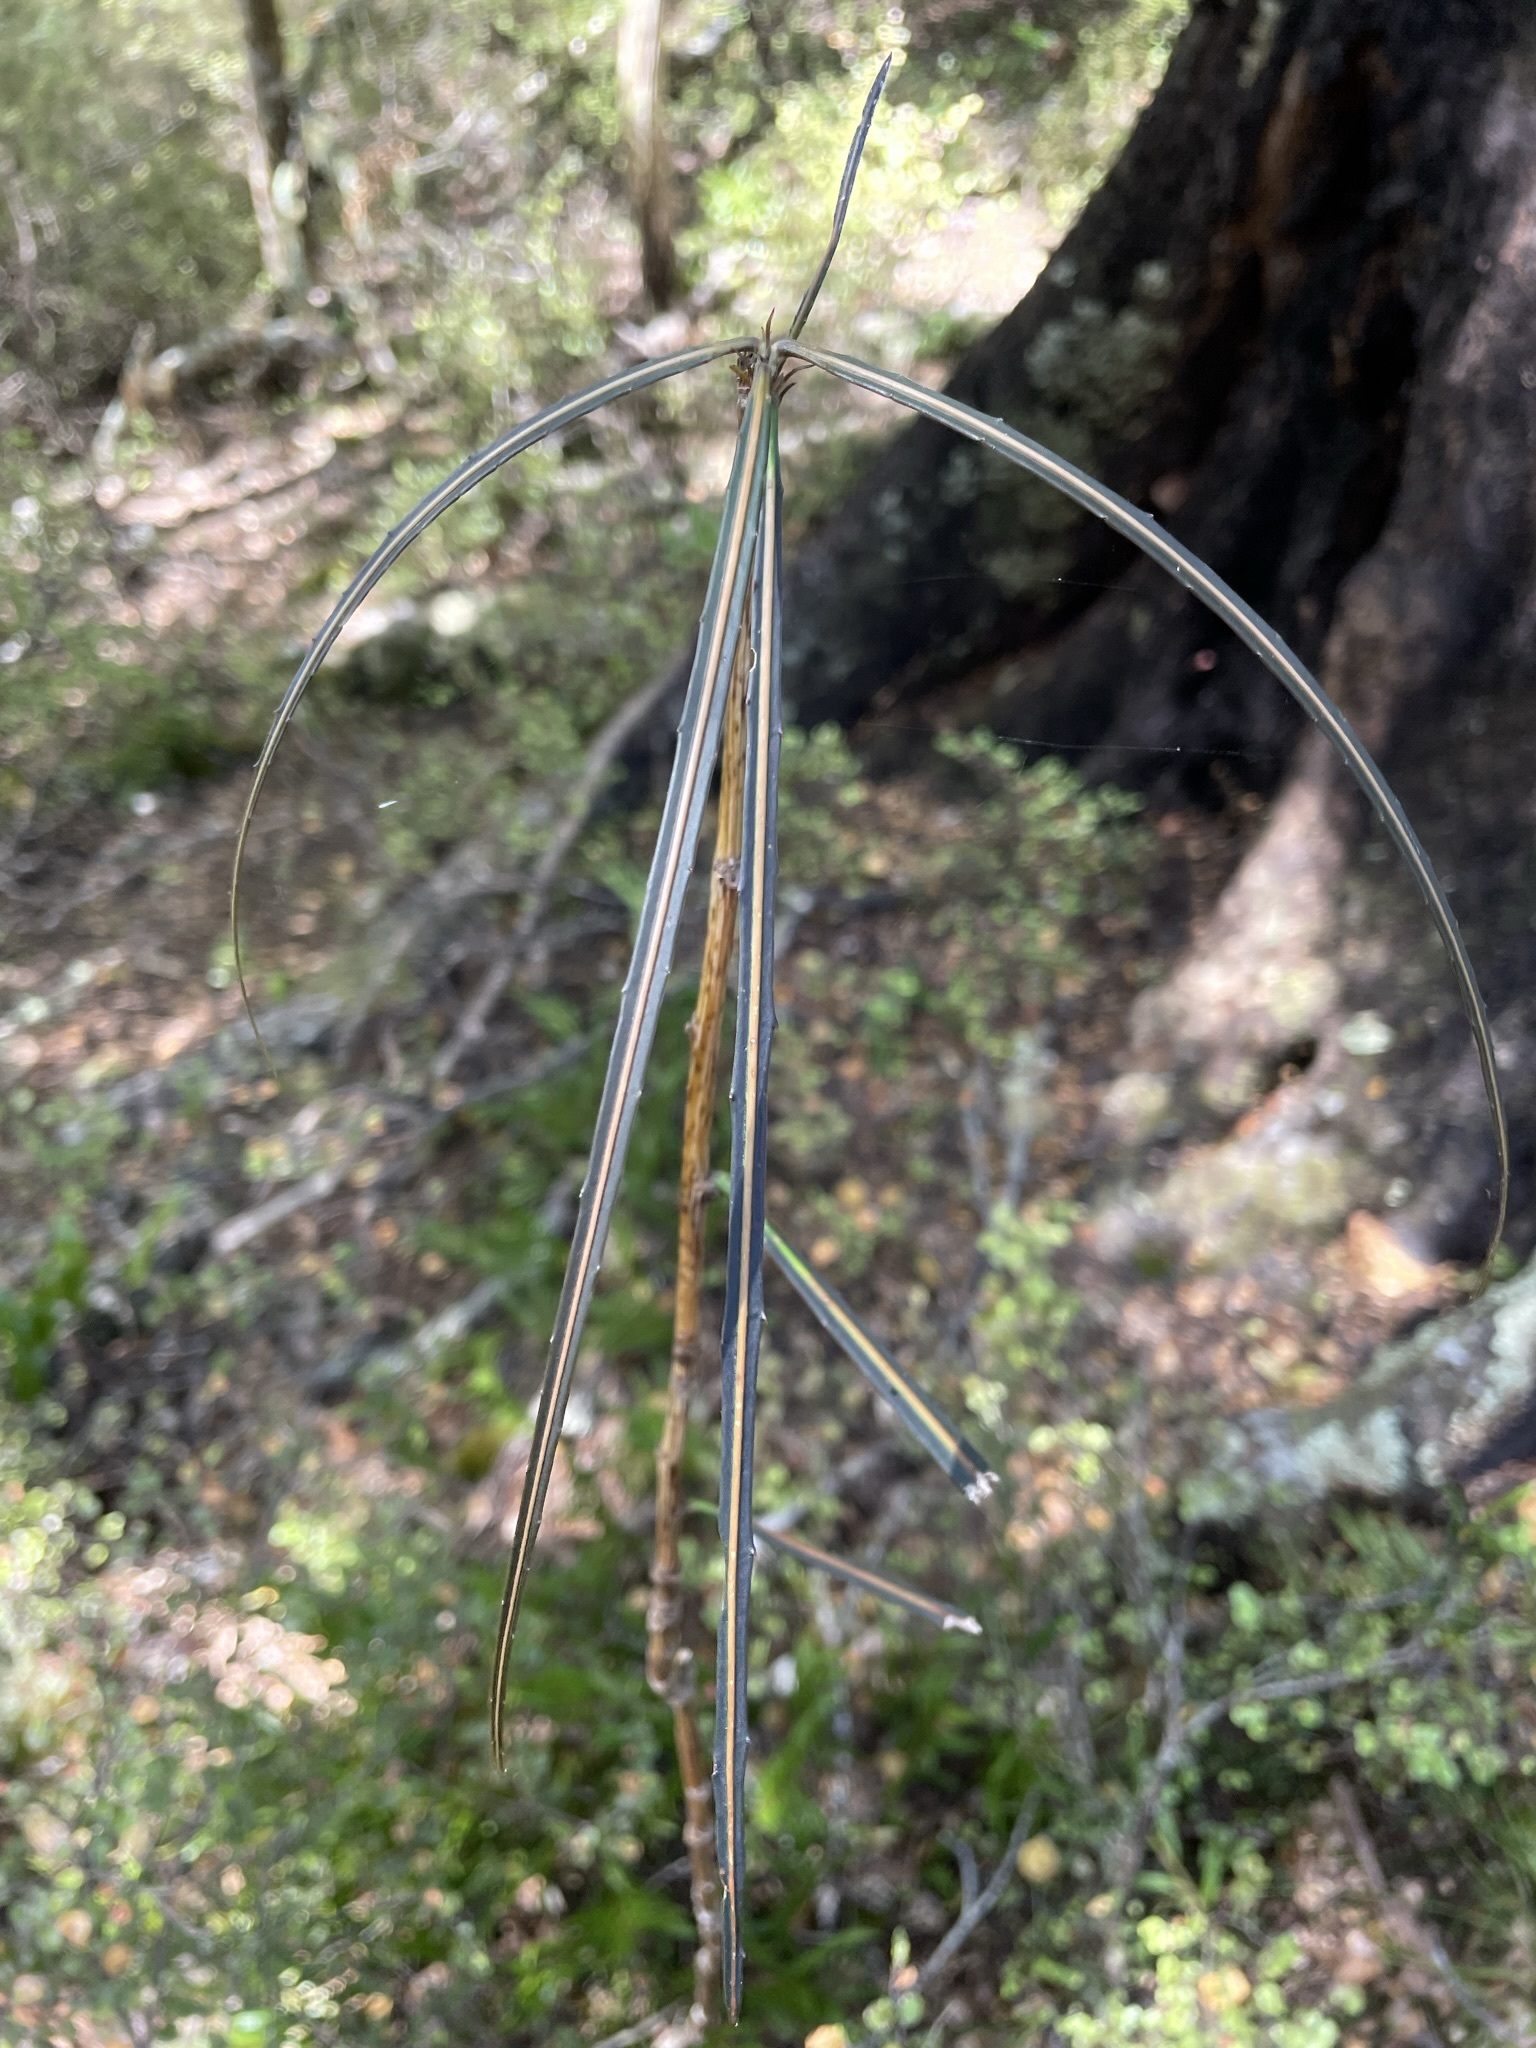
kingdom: Plantae
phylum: Tracheophyta
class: Magnoliopsida
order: Apiales
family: Araliaceae
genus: Pseudopanax
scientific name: Pseudopanax crassifolius
